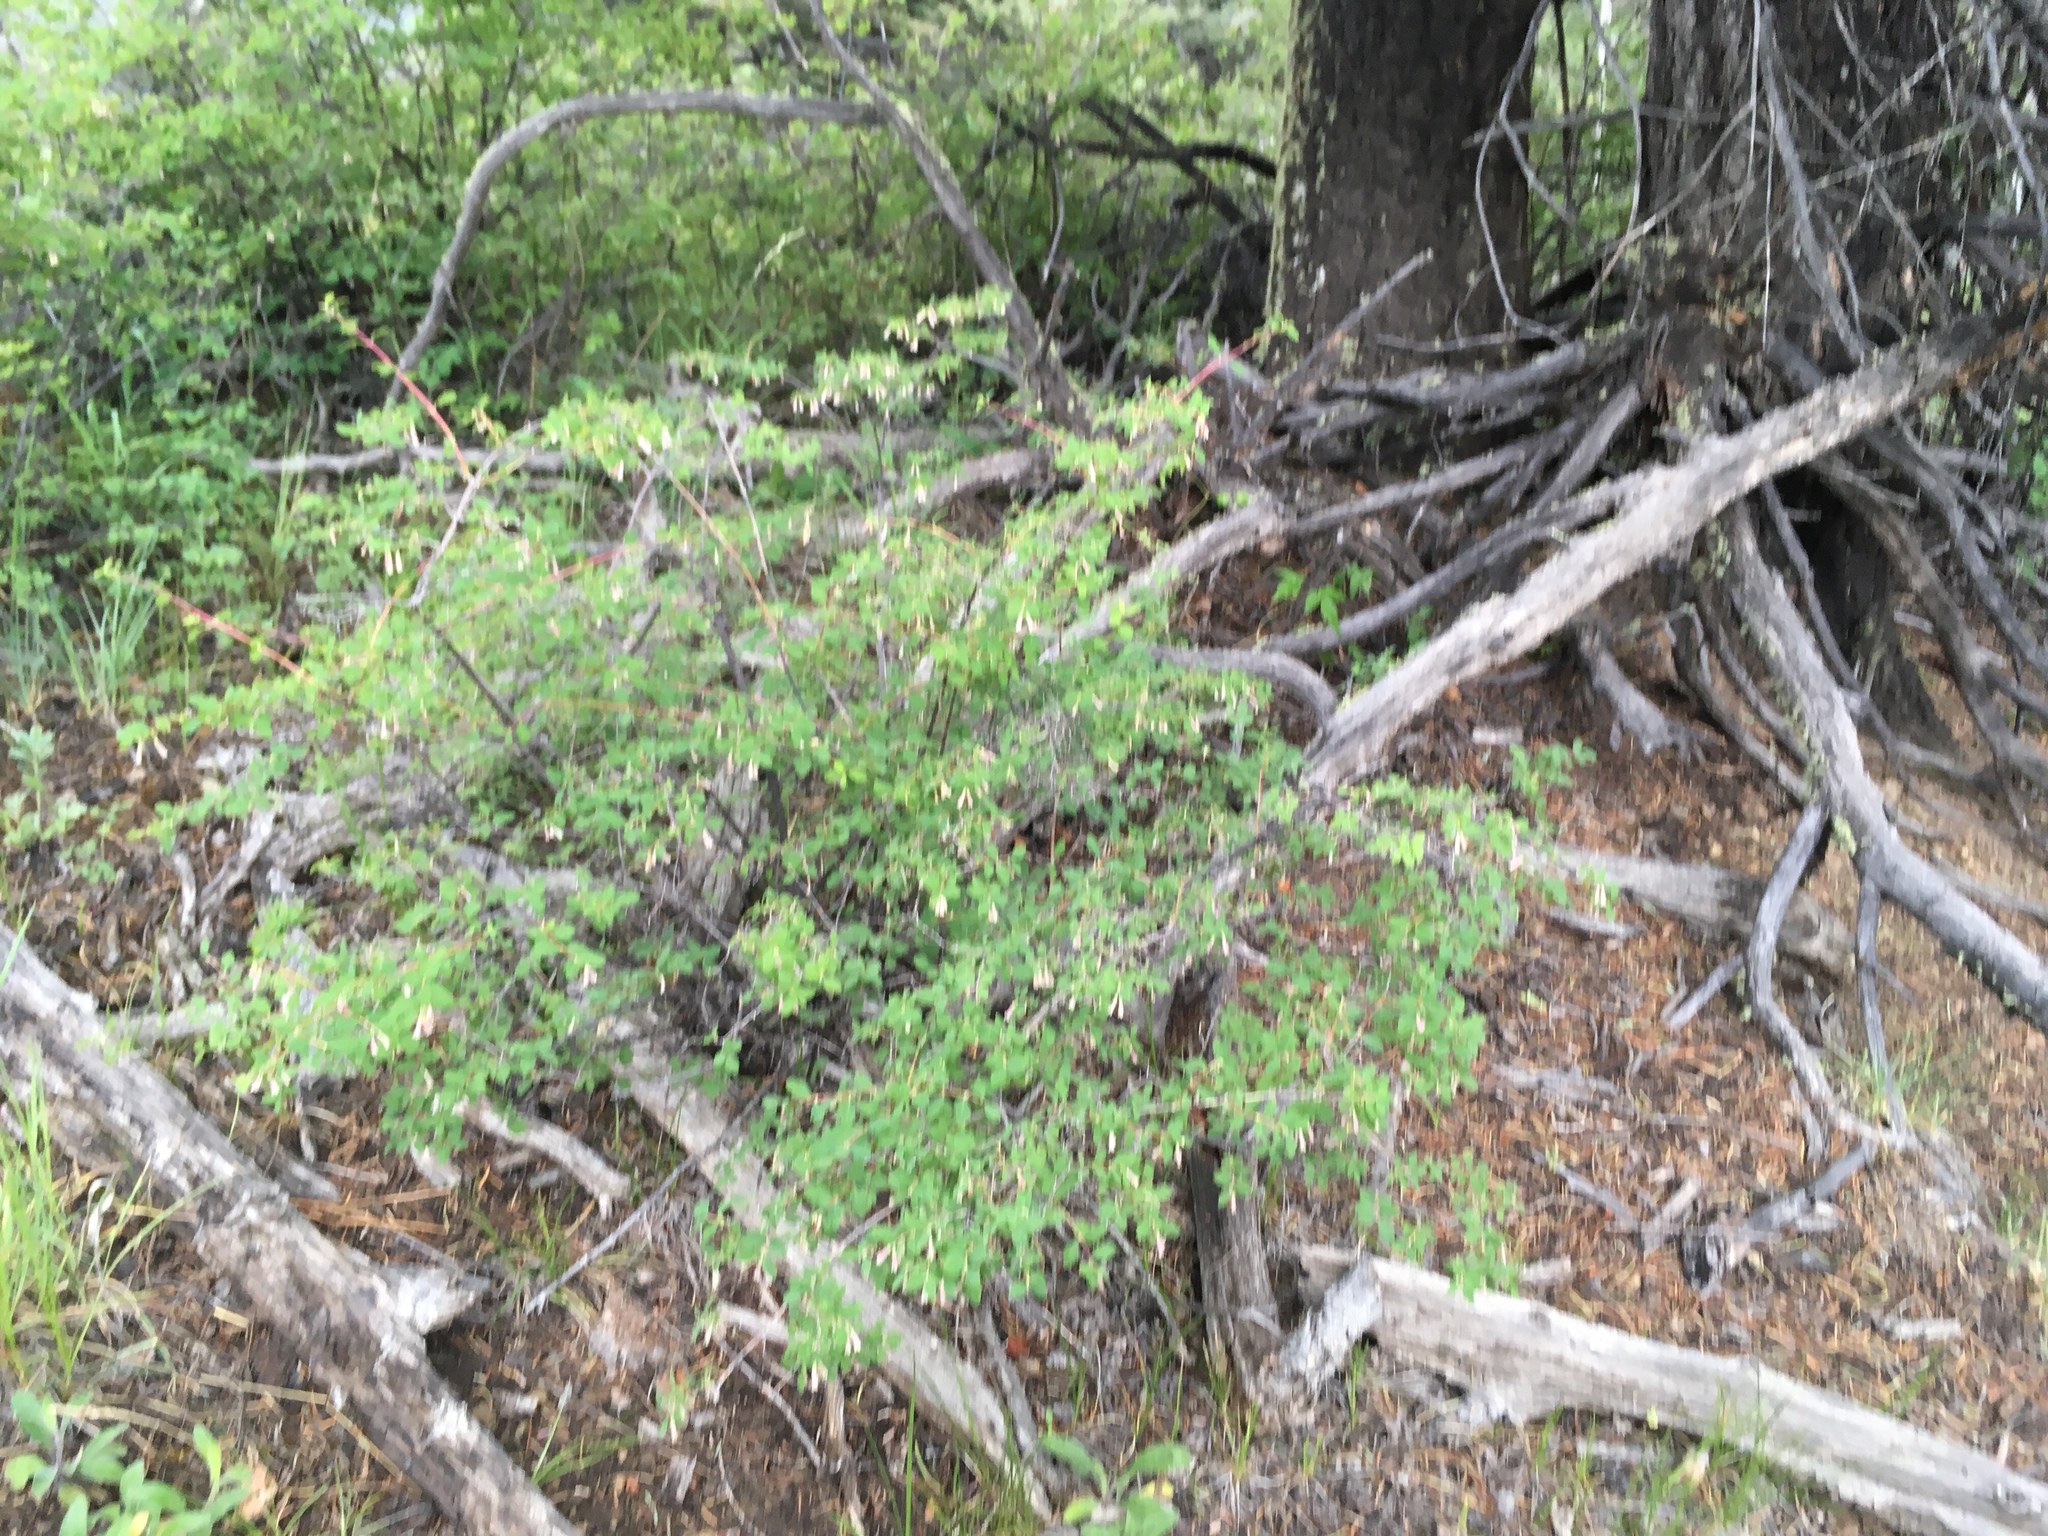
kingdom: Plantae
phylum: Tracheophyta
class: Magnoliopsida
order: Dipsacales
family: Caprifoliaceae
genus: Symphoricarpos
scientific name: Symphoricarpos rotundifolius
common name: Round-leaved snowberry
